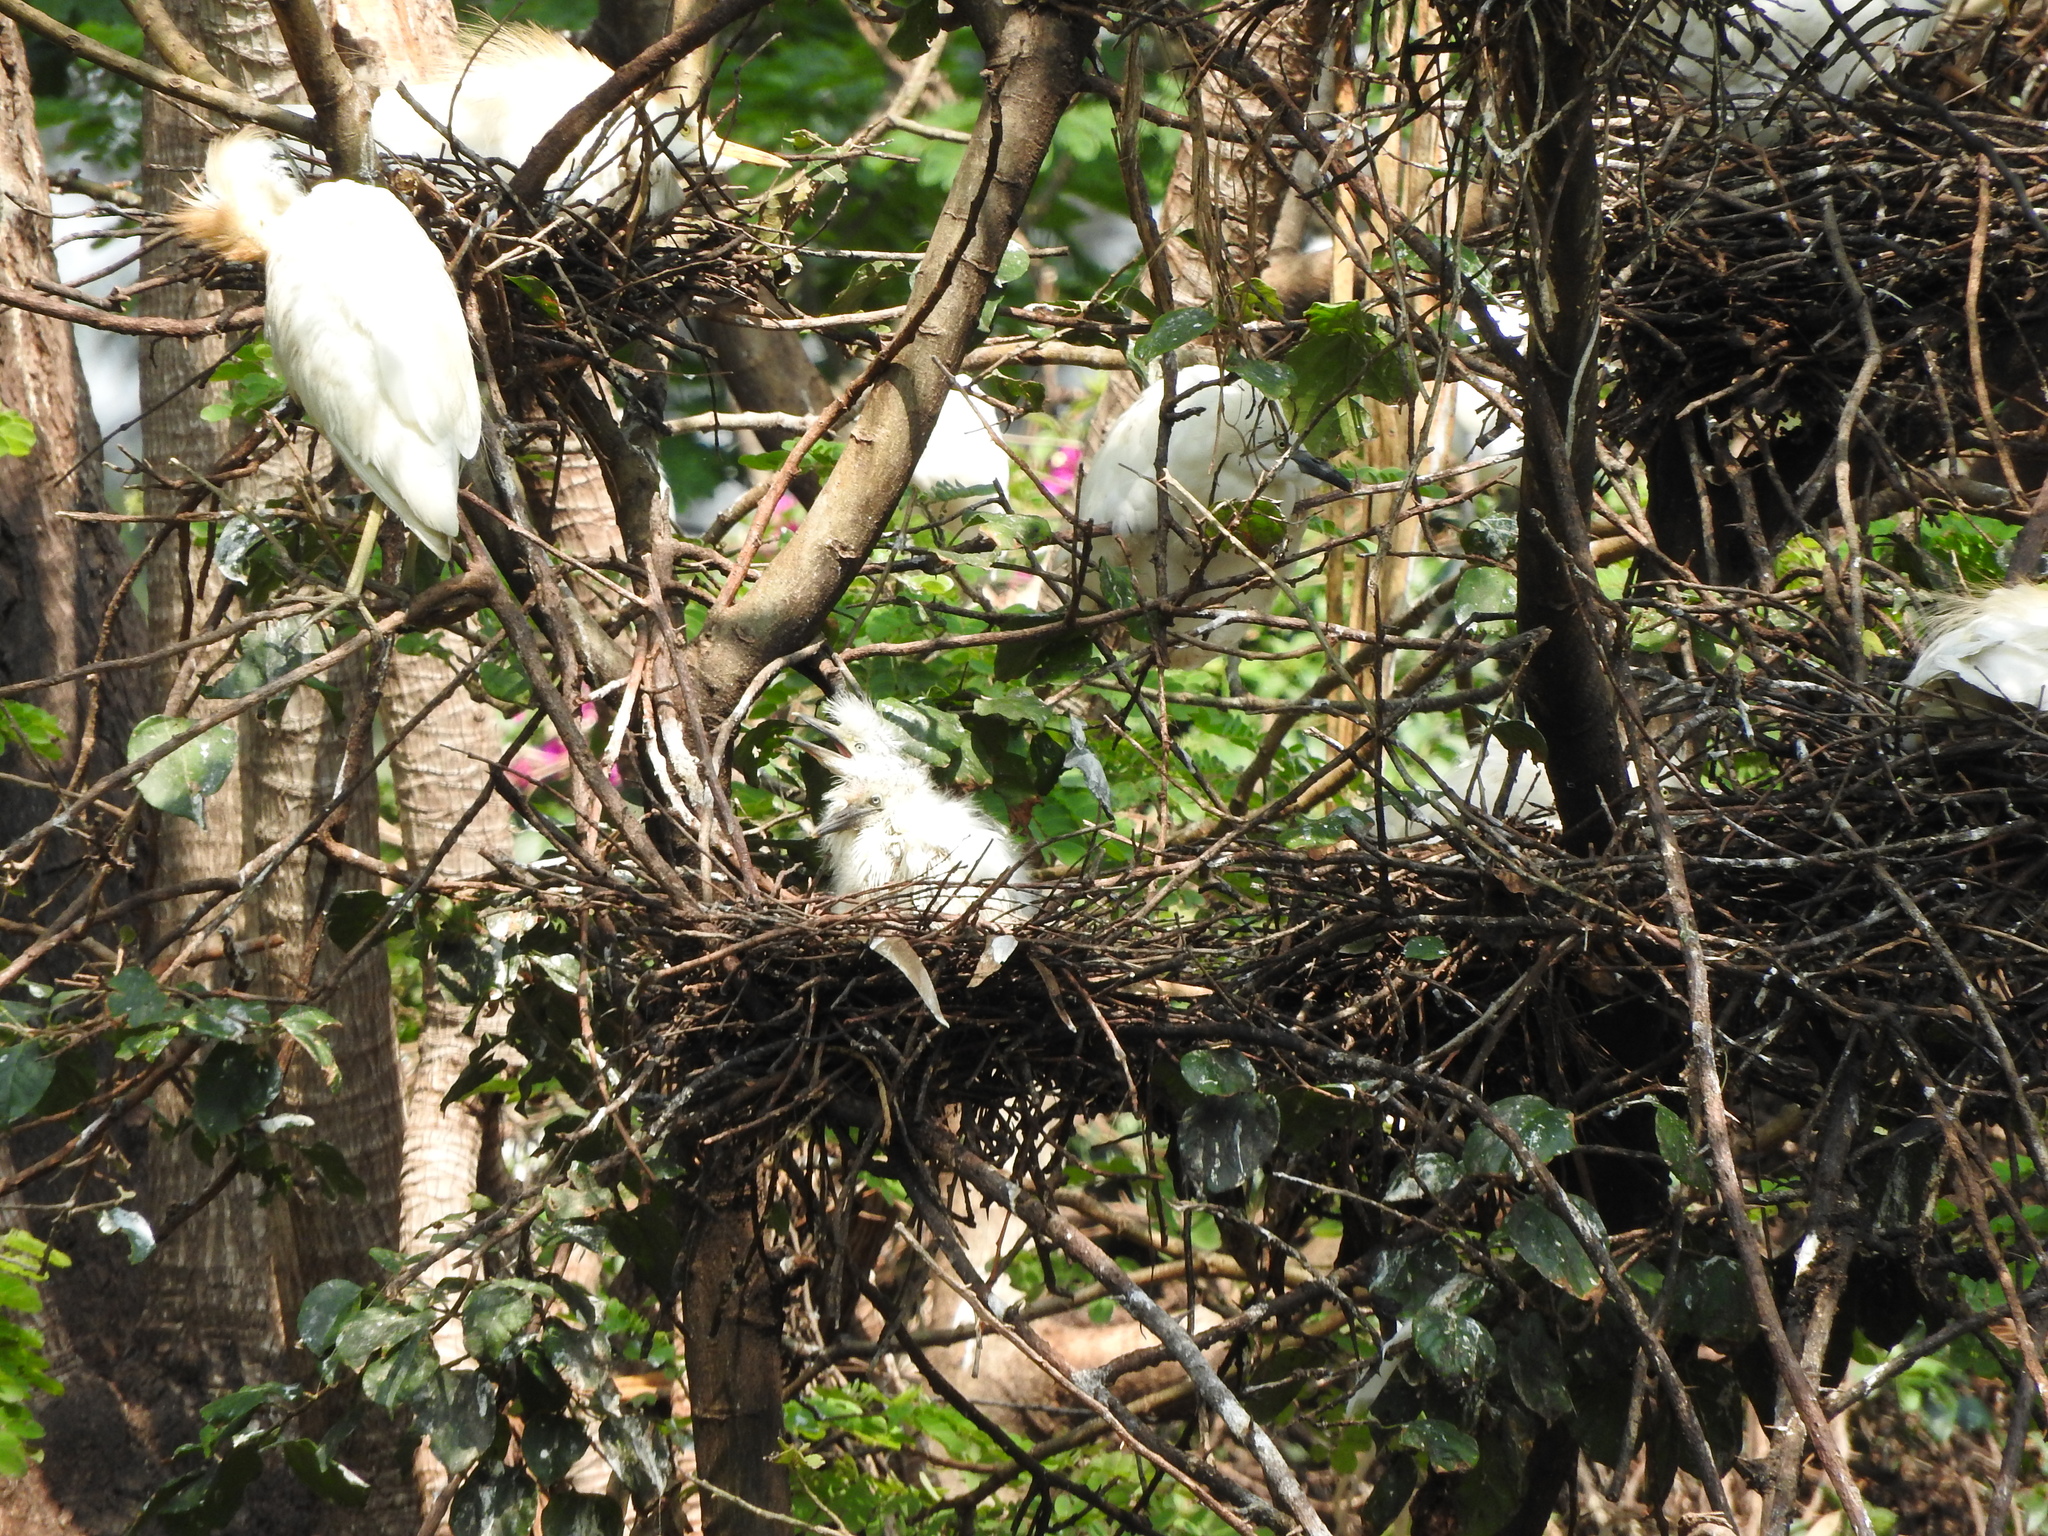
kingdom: Animalia
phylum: Chordata
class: Aves
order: Pelecaniformes
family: Ardeidae
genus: Bubulcus
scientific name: Bubulcus ibis
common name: Cattle egret
